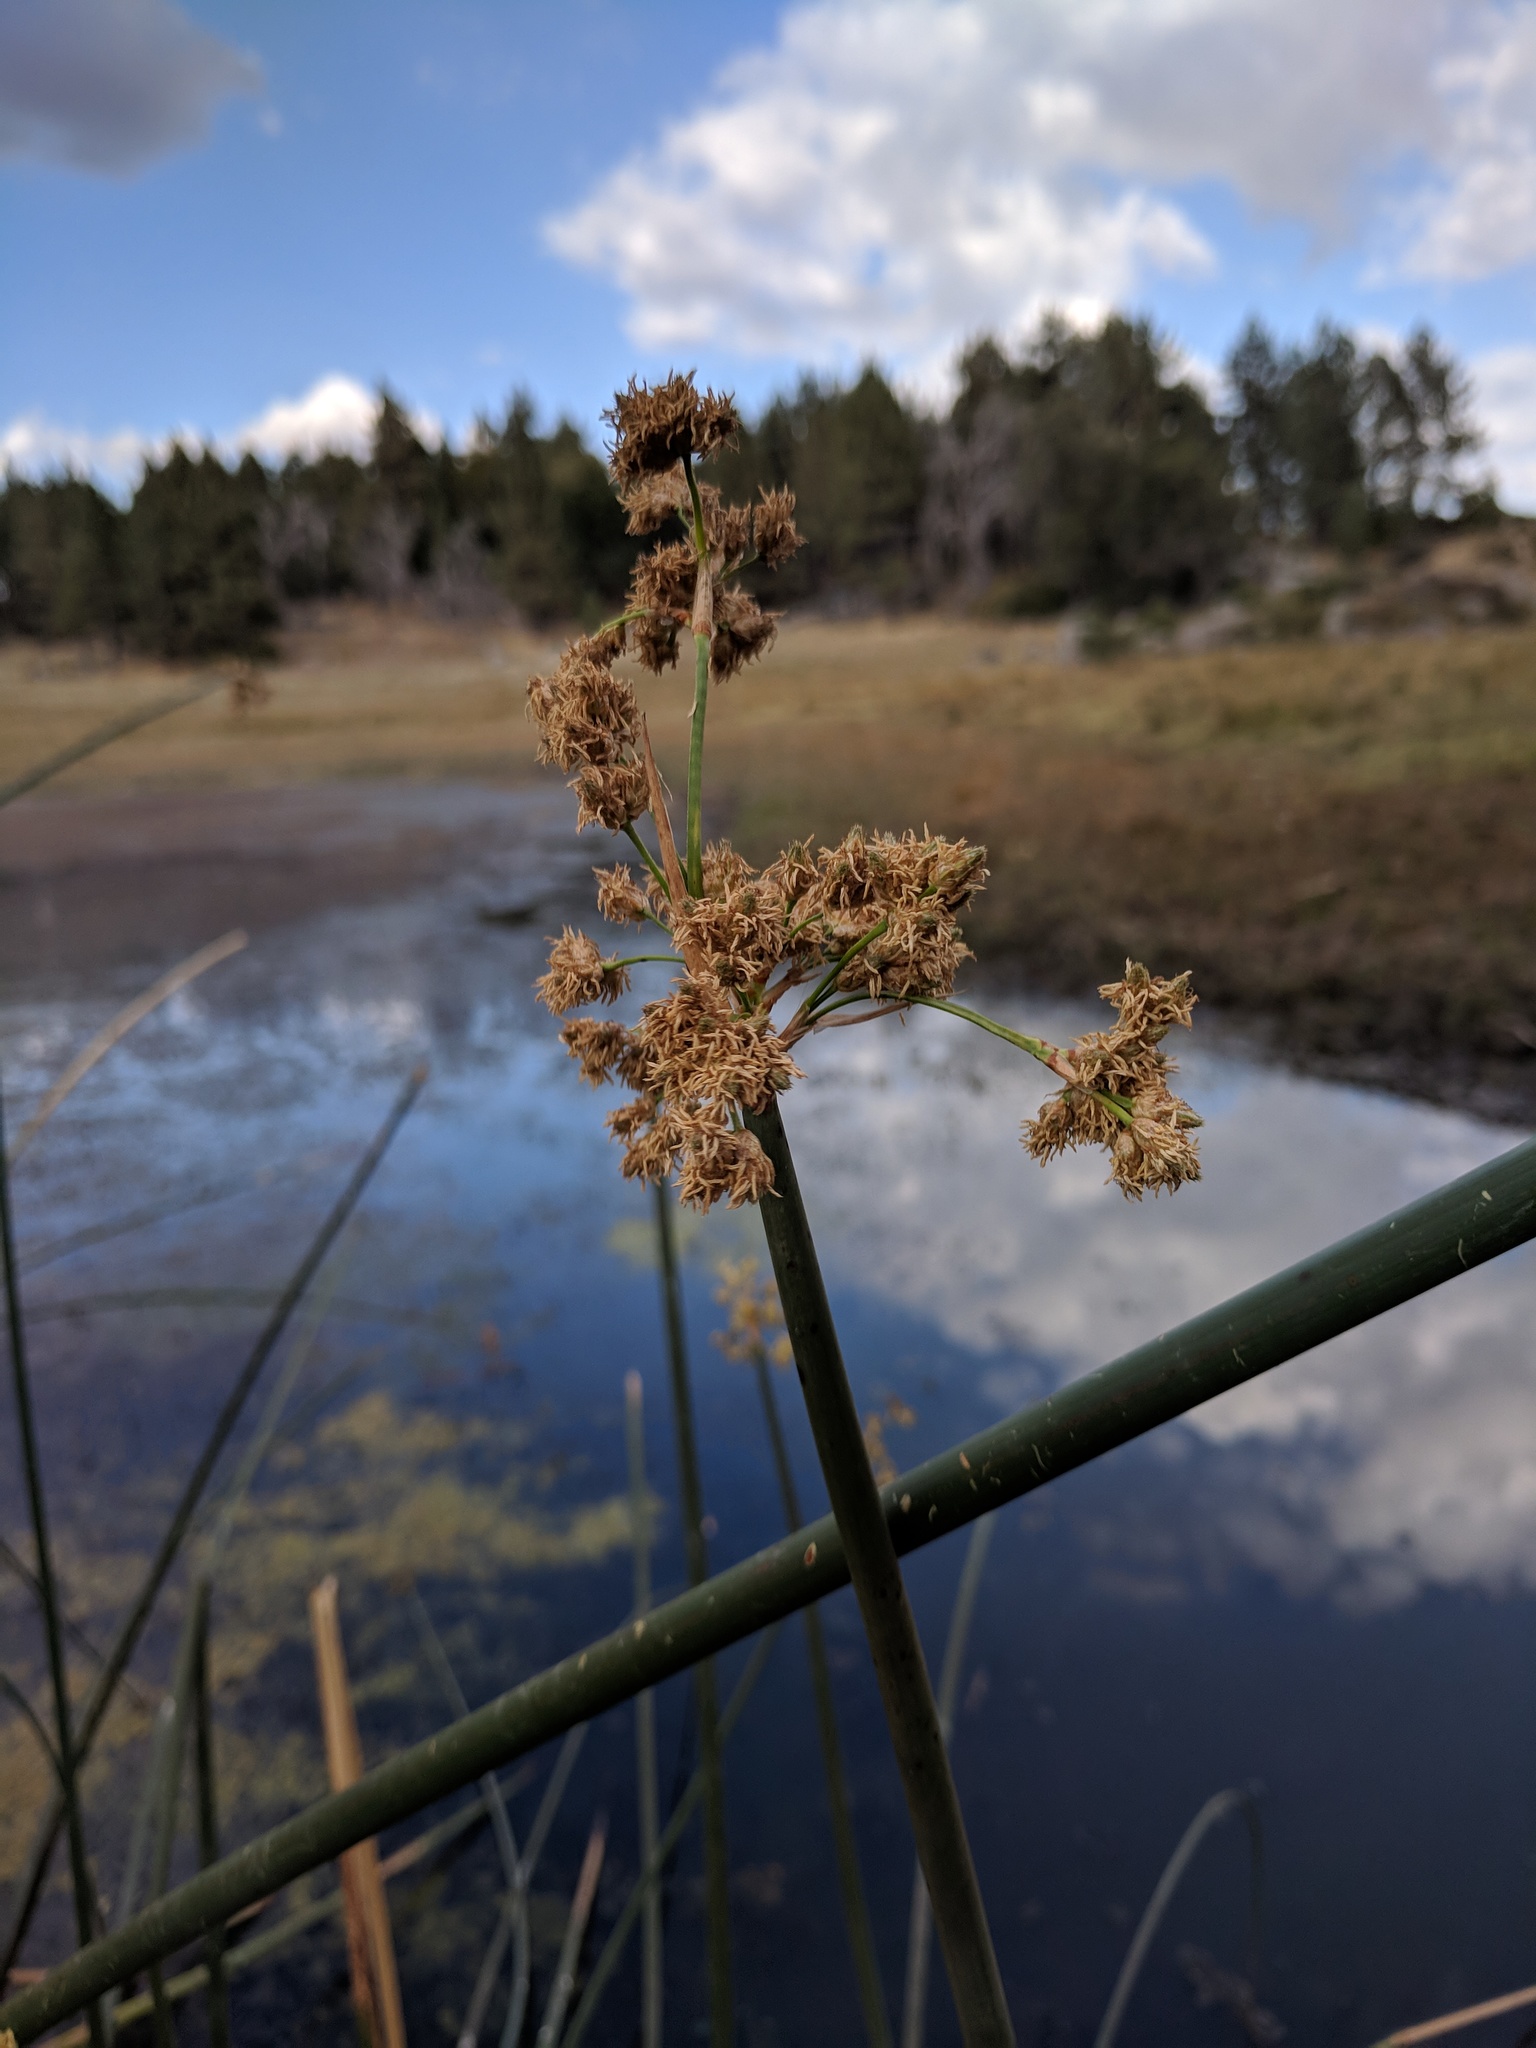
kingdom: Plantae
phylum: Tracheophyta
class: Liliopsida
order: Poales
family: Cyperaceae
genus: Schoenoplectus
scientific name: Schoenoplectus acutus
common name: Hardstem bulrush
